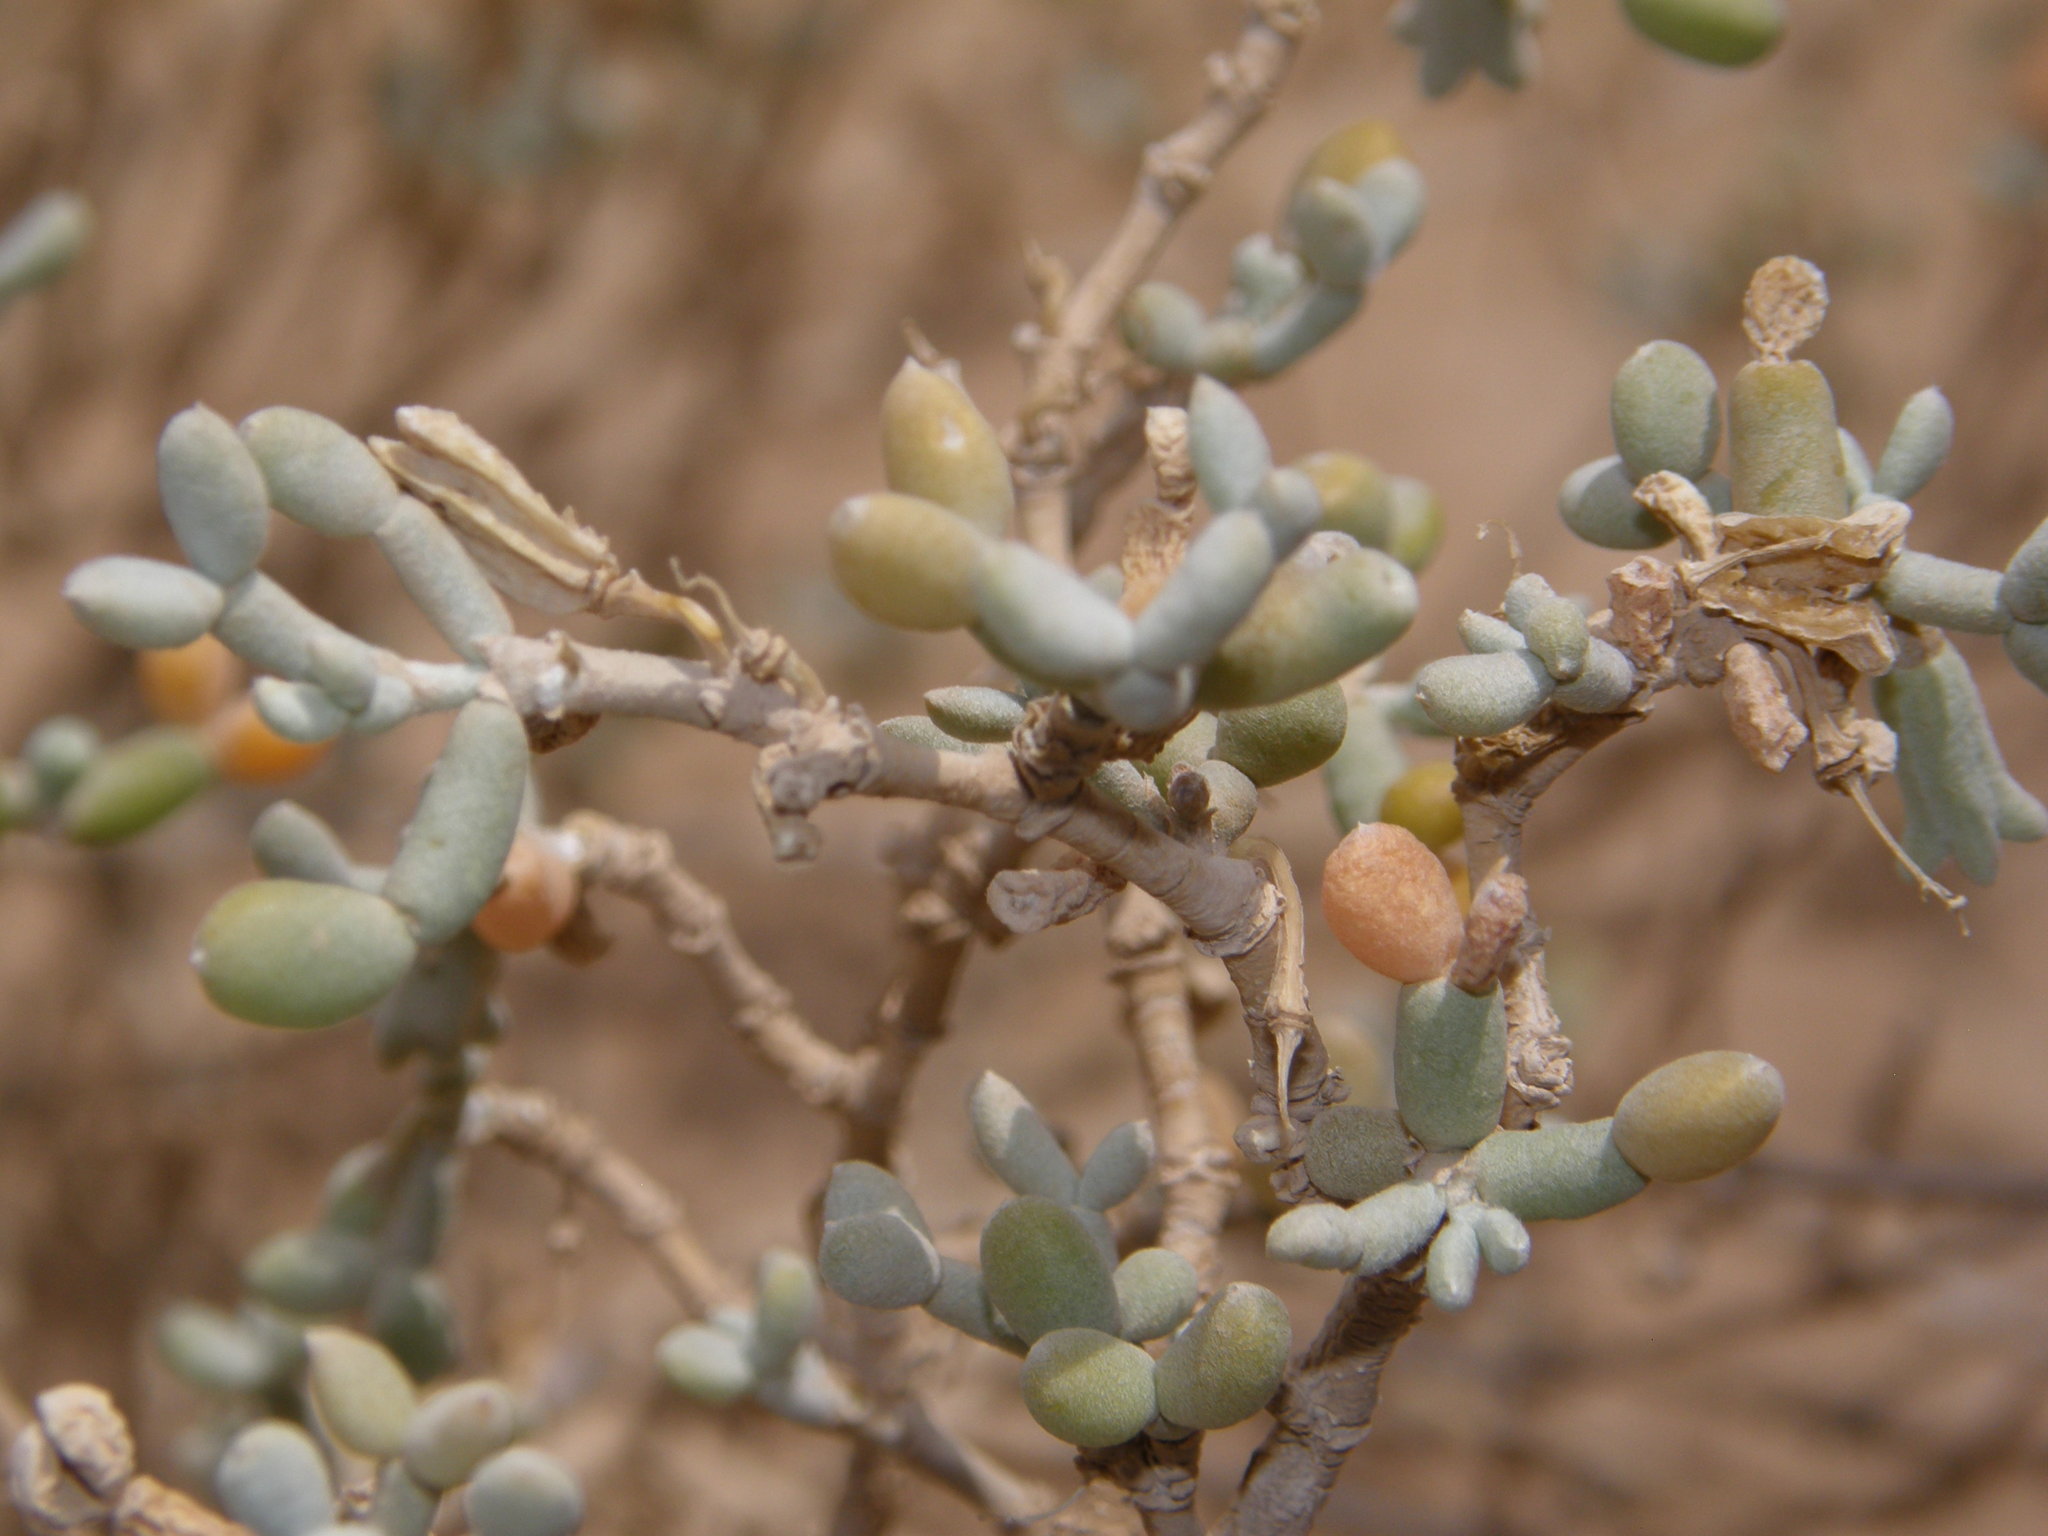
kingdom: Plantae
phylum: Tracheophyta
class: Magnoliopsida
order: Zygophyllales
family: Zygophyllaceae
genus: Tetraena
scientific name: Tetraena gaetula
